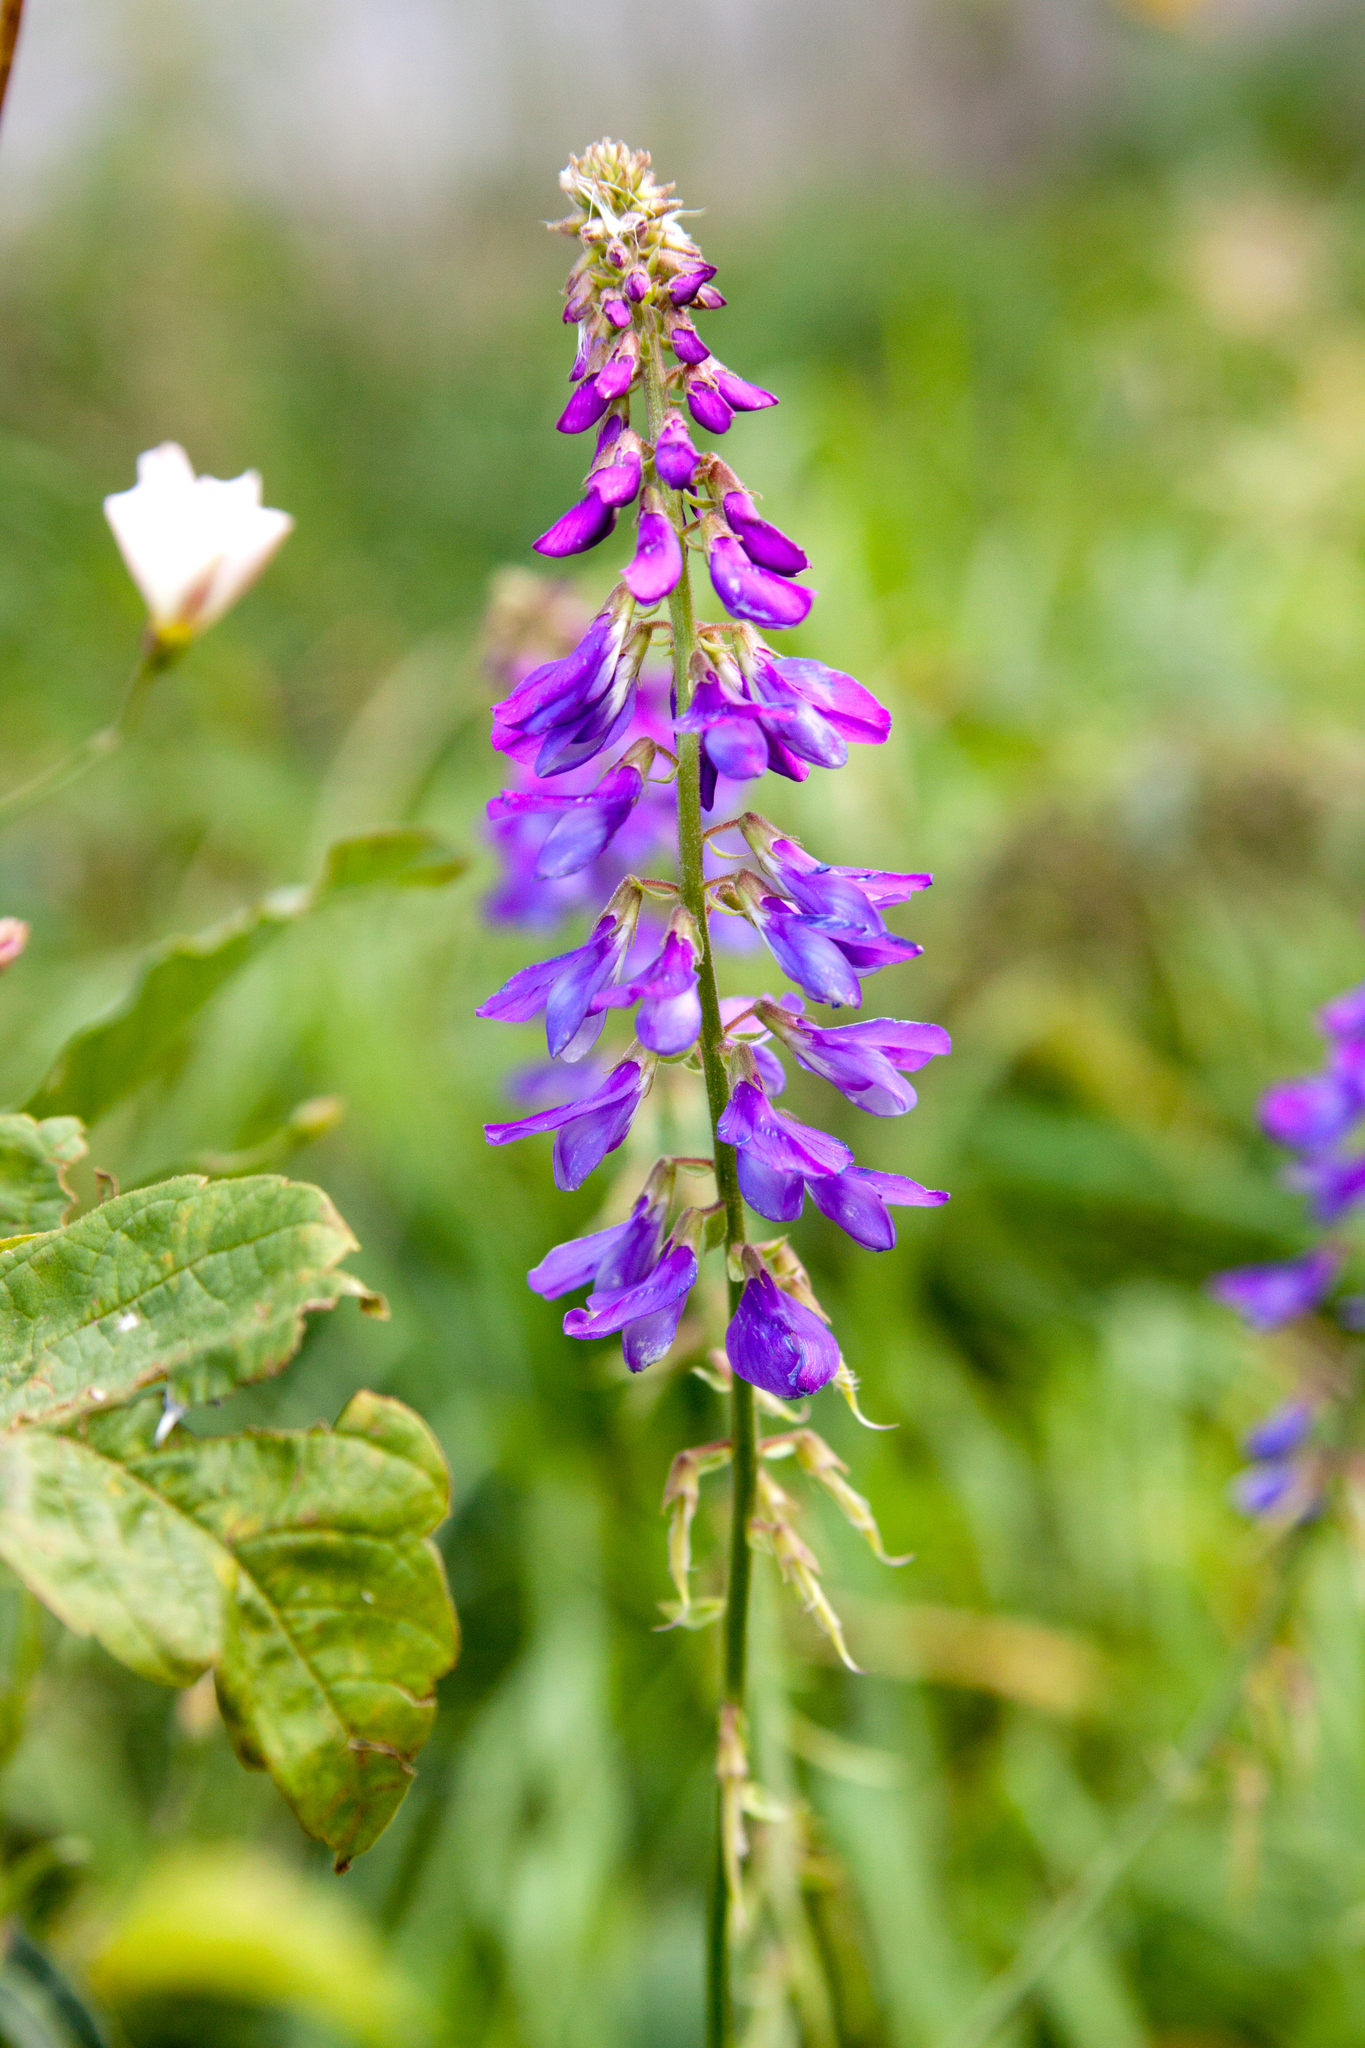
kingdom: Plantae
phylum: Tracheophyta
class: Magnoliopsida
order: Fabales
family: Fabaceae
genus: Galega
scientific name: Galega orientalis
